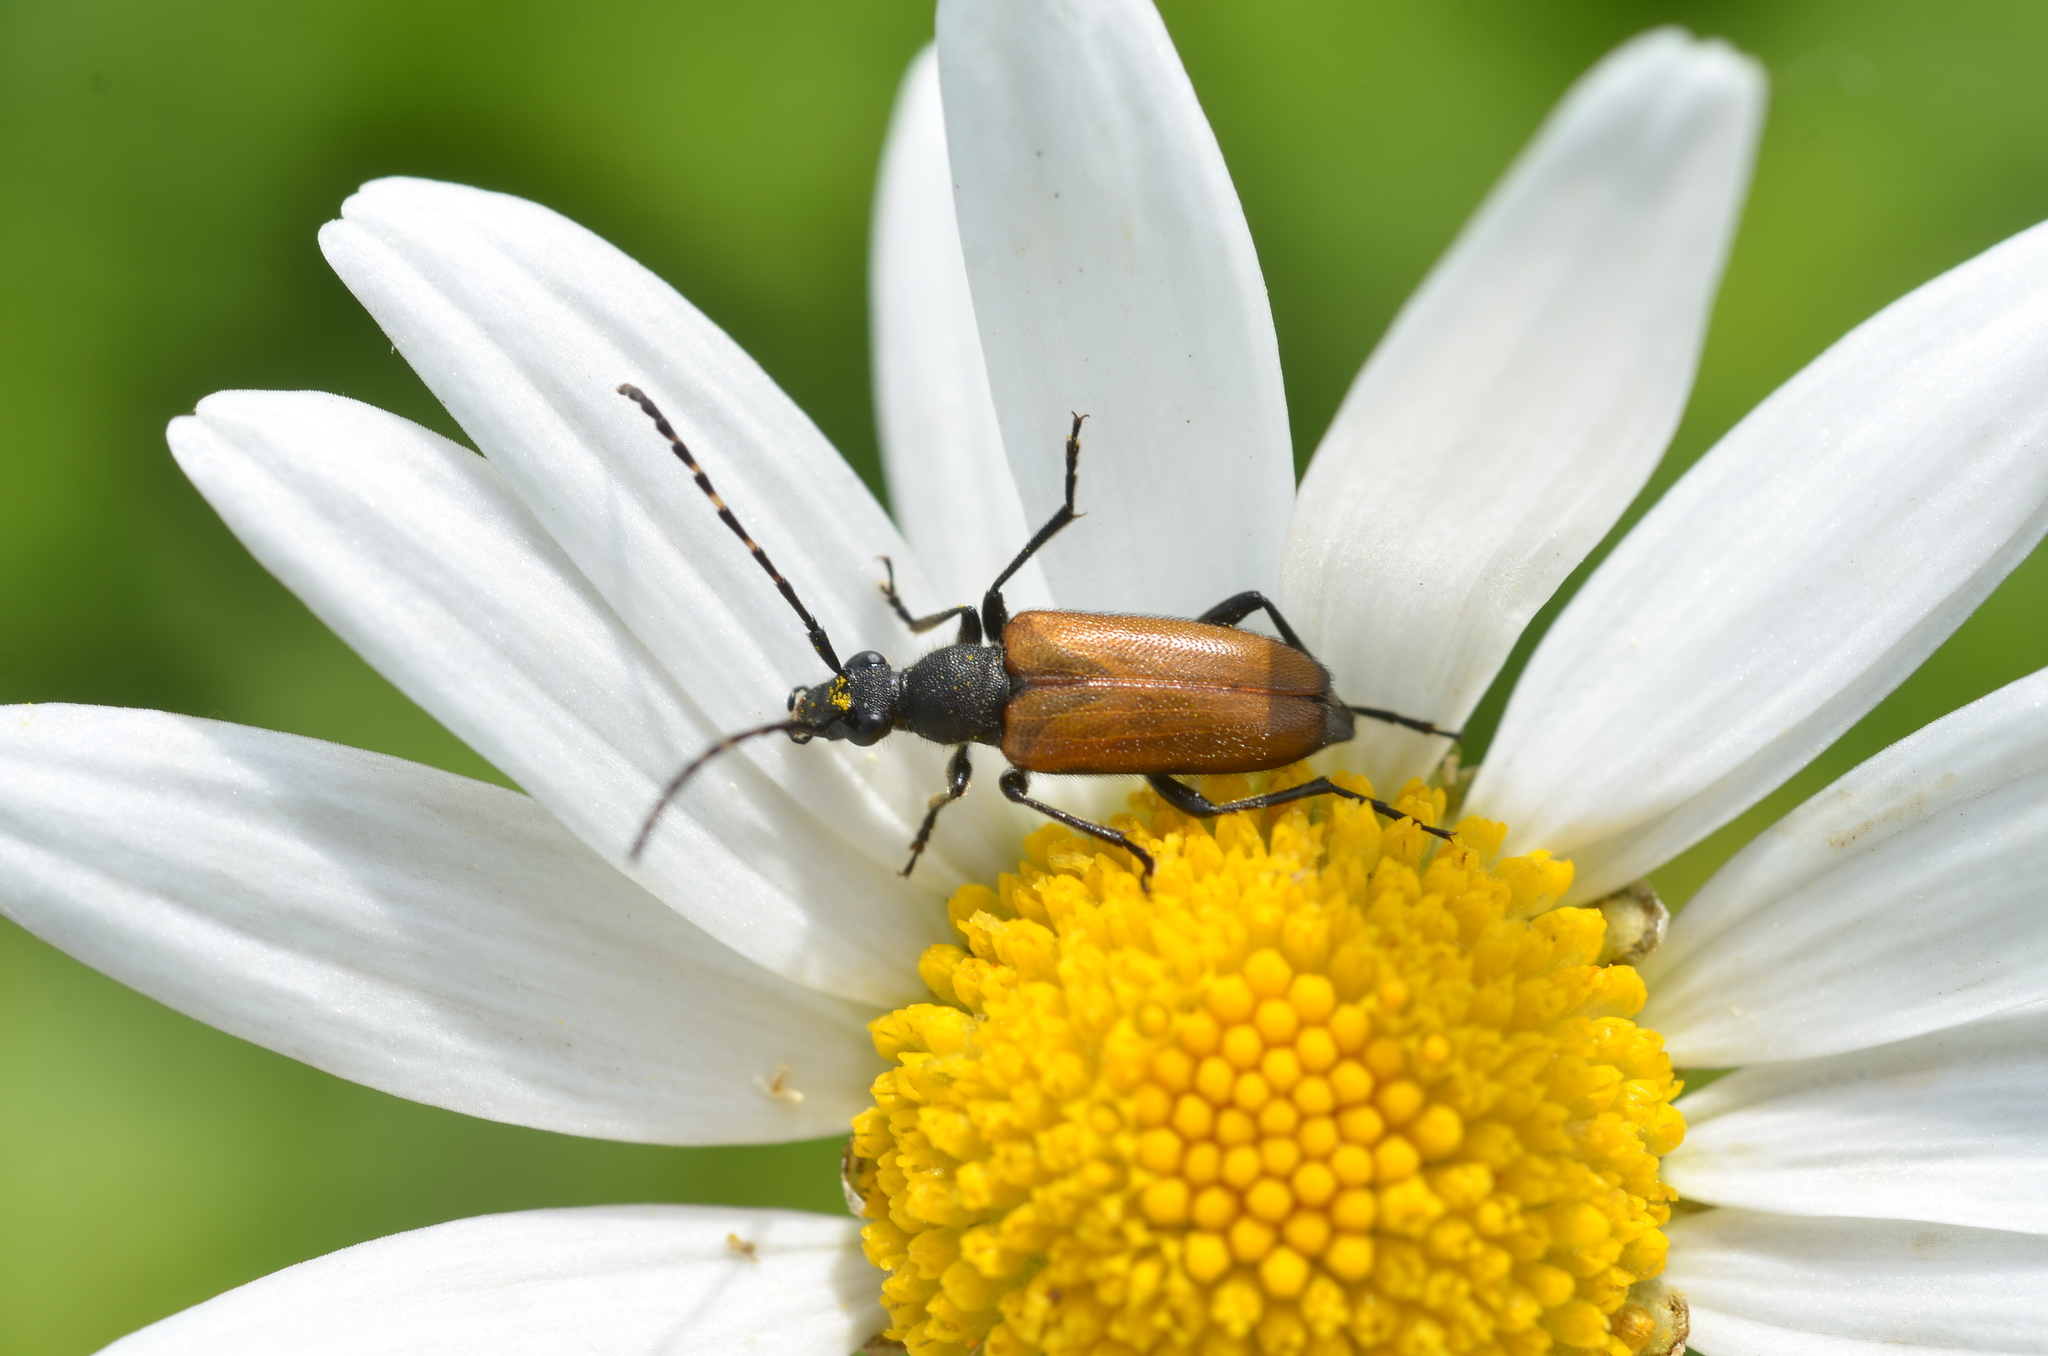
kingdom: Animalia
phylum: Arthropoda
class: Insecta
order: Coleoptera
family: Cerambycidae
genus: Paracorymbia
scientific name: Paracorymbia maculicornis
